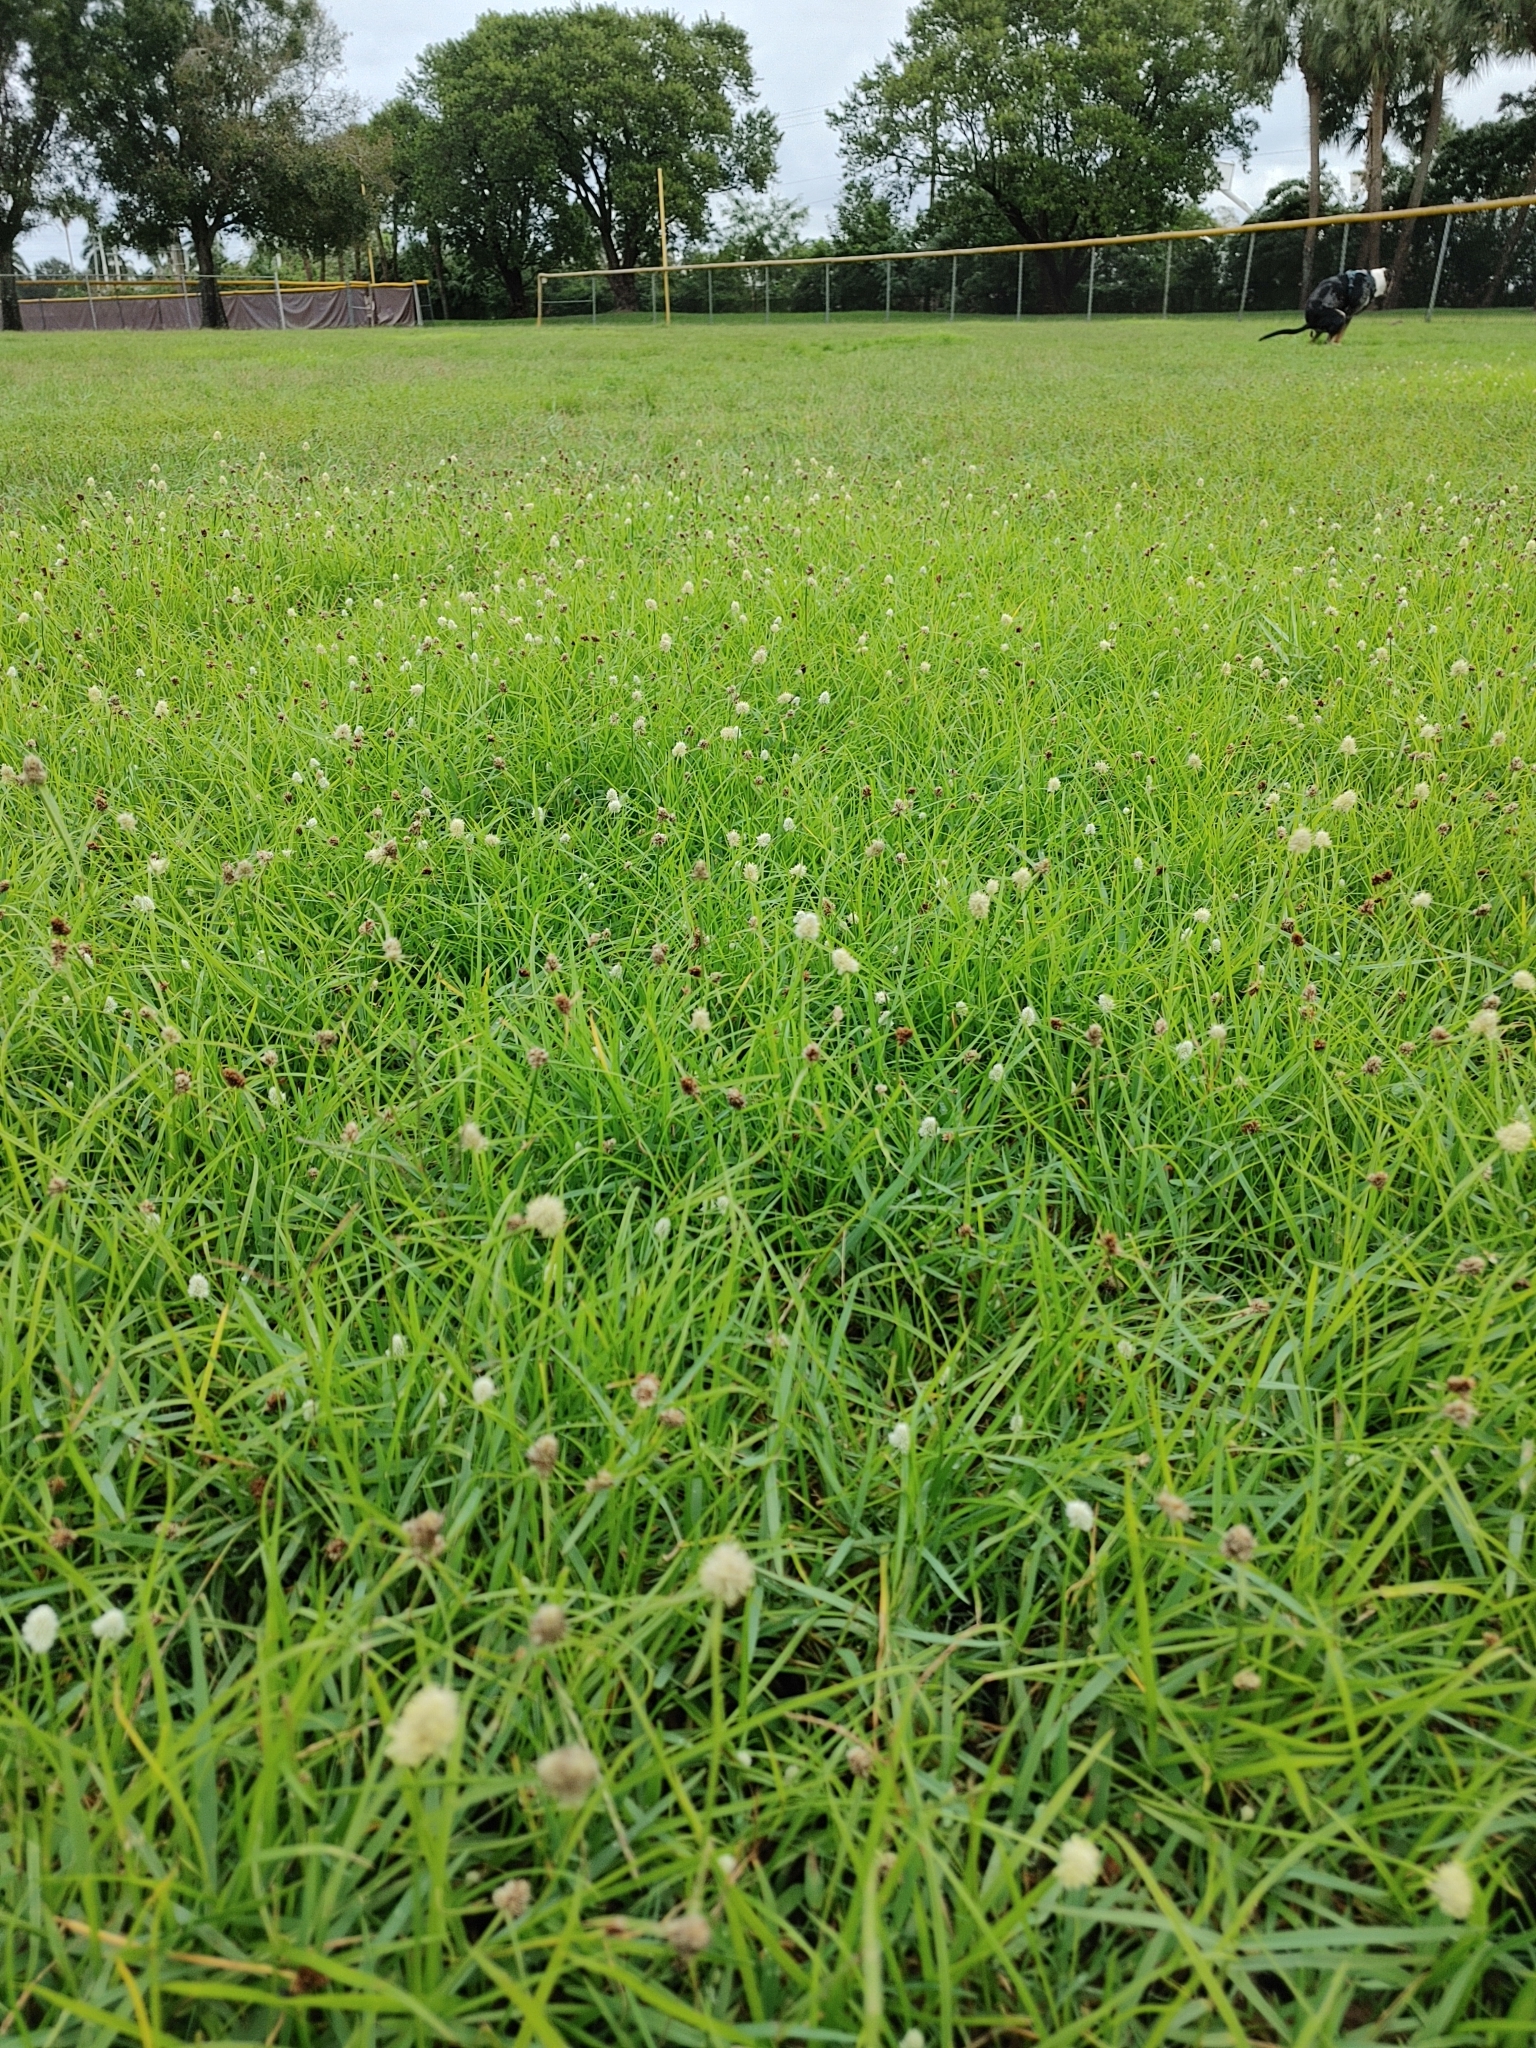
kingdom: Plantae
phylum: Tracheophyta
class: Liliopsida
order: Poales
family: Cyperaceae
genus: Cyperus
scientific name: Cyperus richardii
